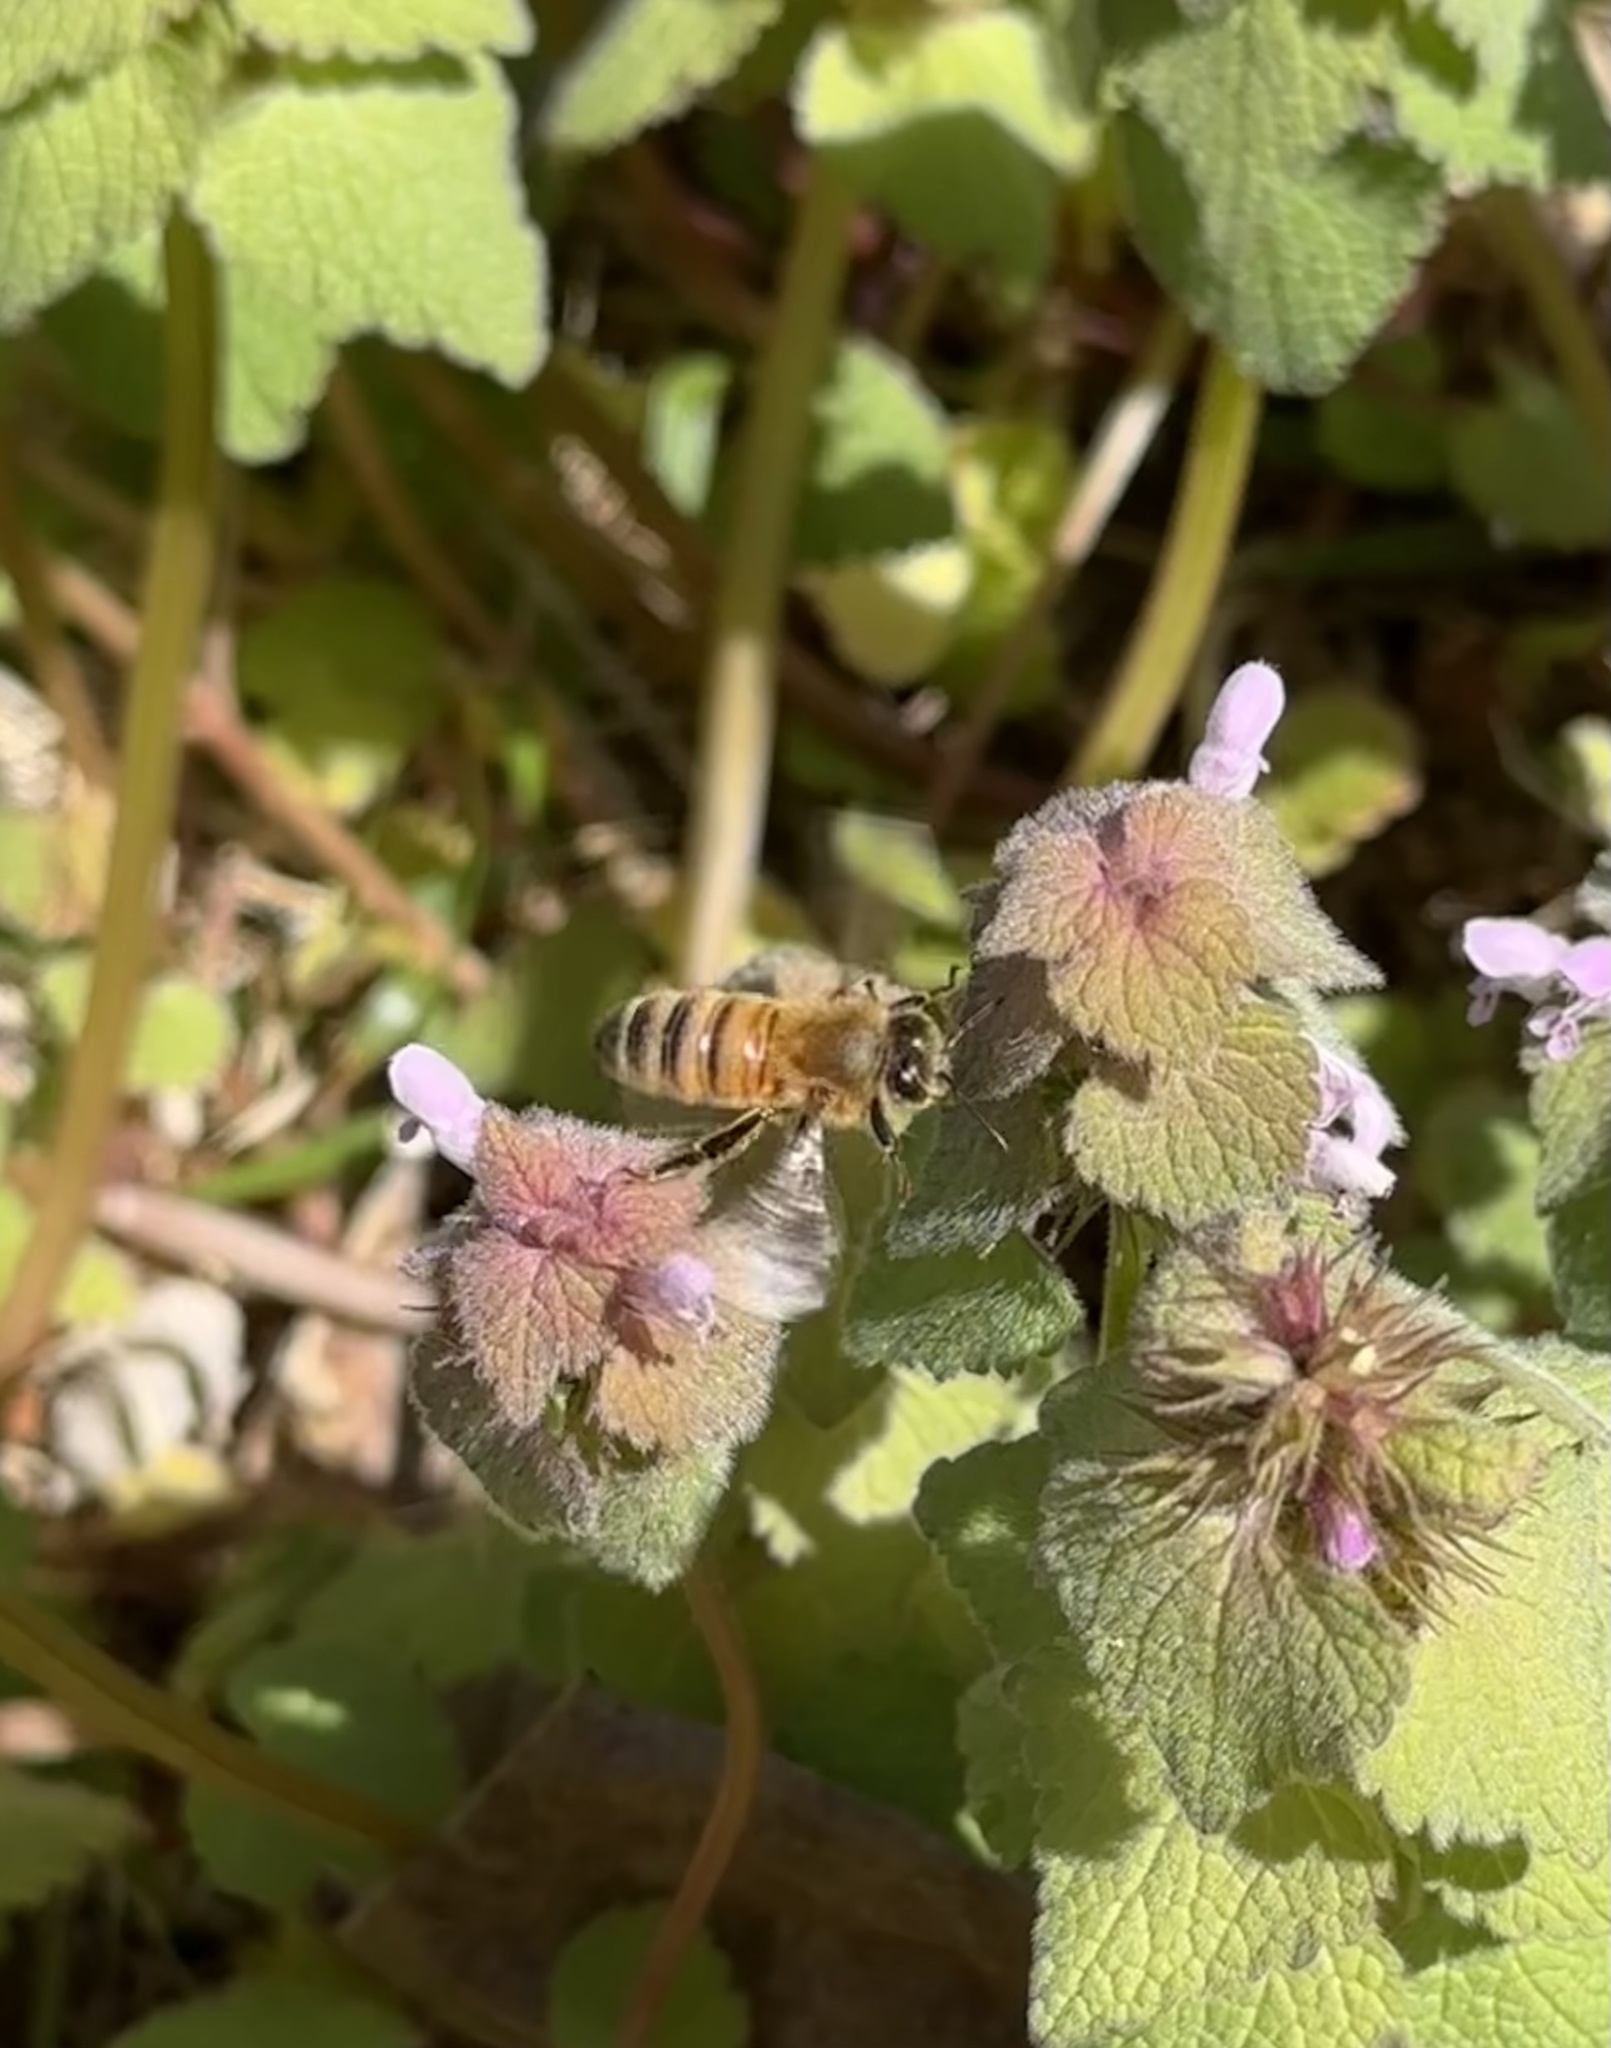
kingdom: Animalia
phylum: Arthropoda
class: Insecta
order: Hymenoptera
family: Apidae
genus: Apis
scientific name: Apis mellifera
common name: Honey bee
